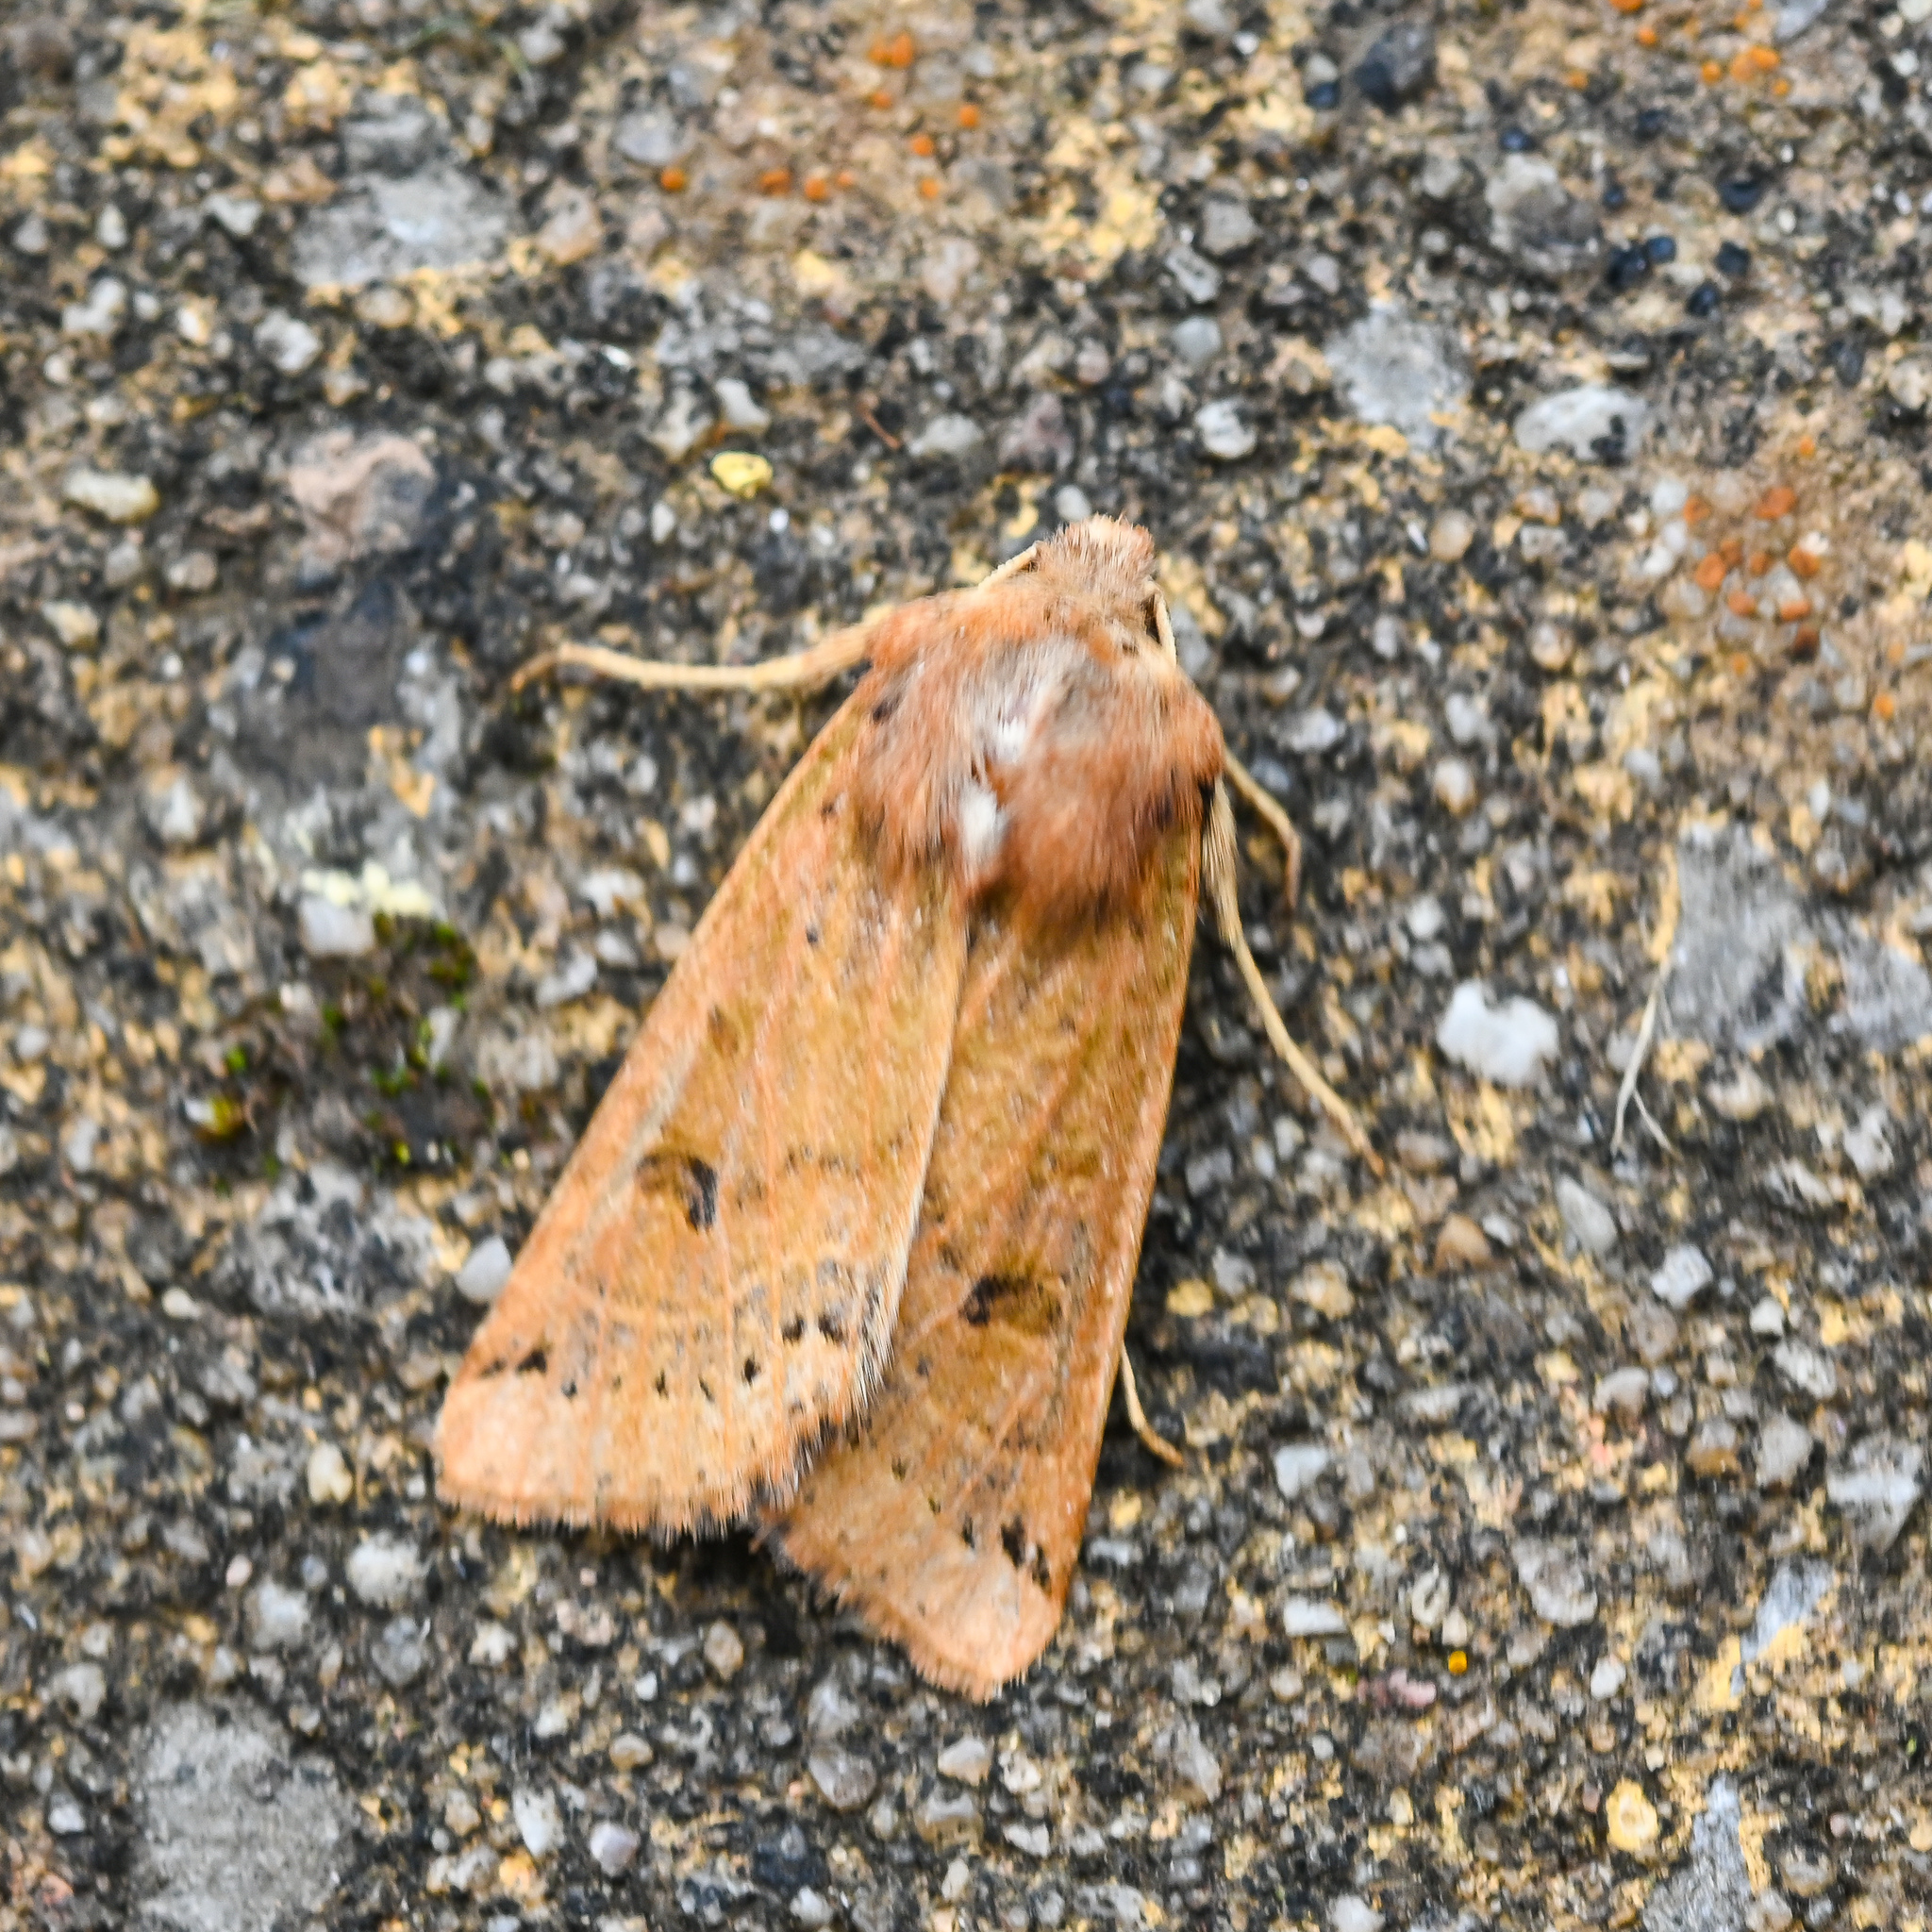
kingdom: Animalia
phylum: Arthropoda
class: Insecta
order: Lepidoptera
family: Noctuidae
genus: Agrochola
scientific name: Agrochola lunosa
